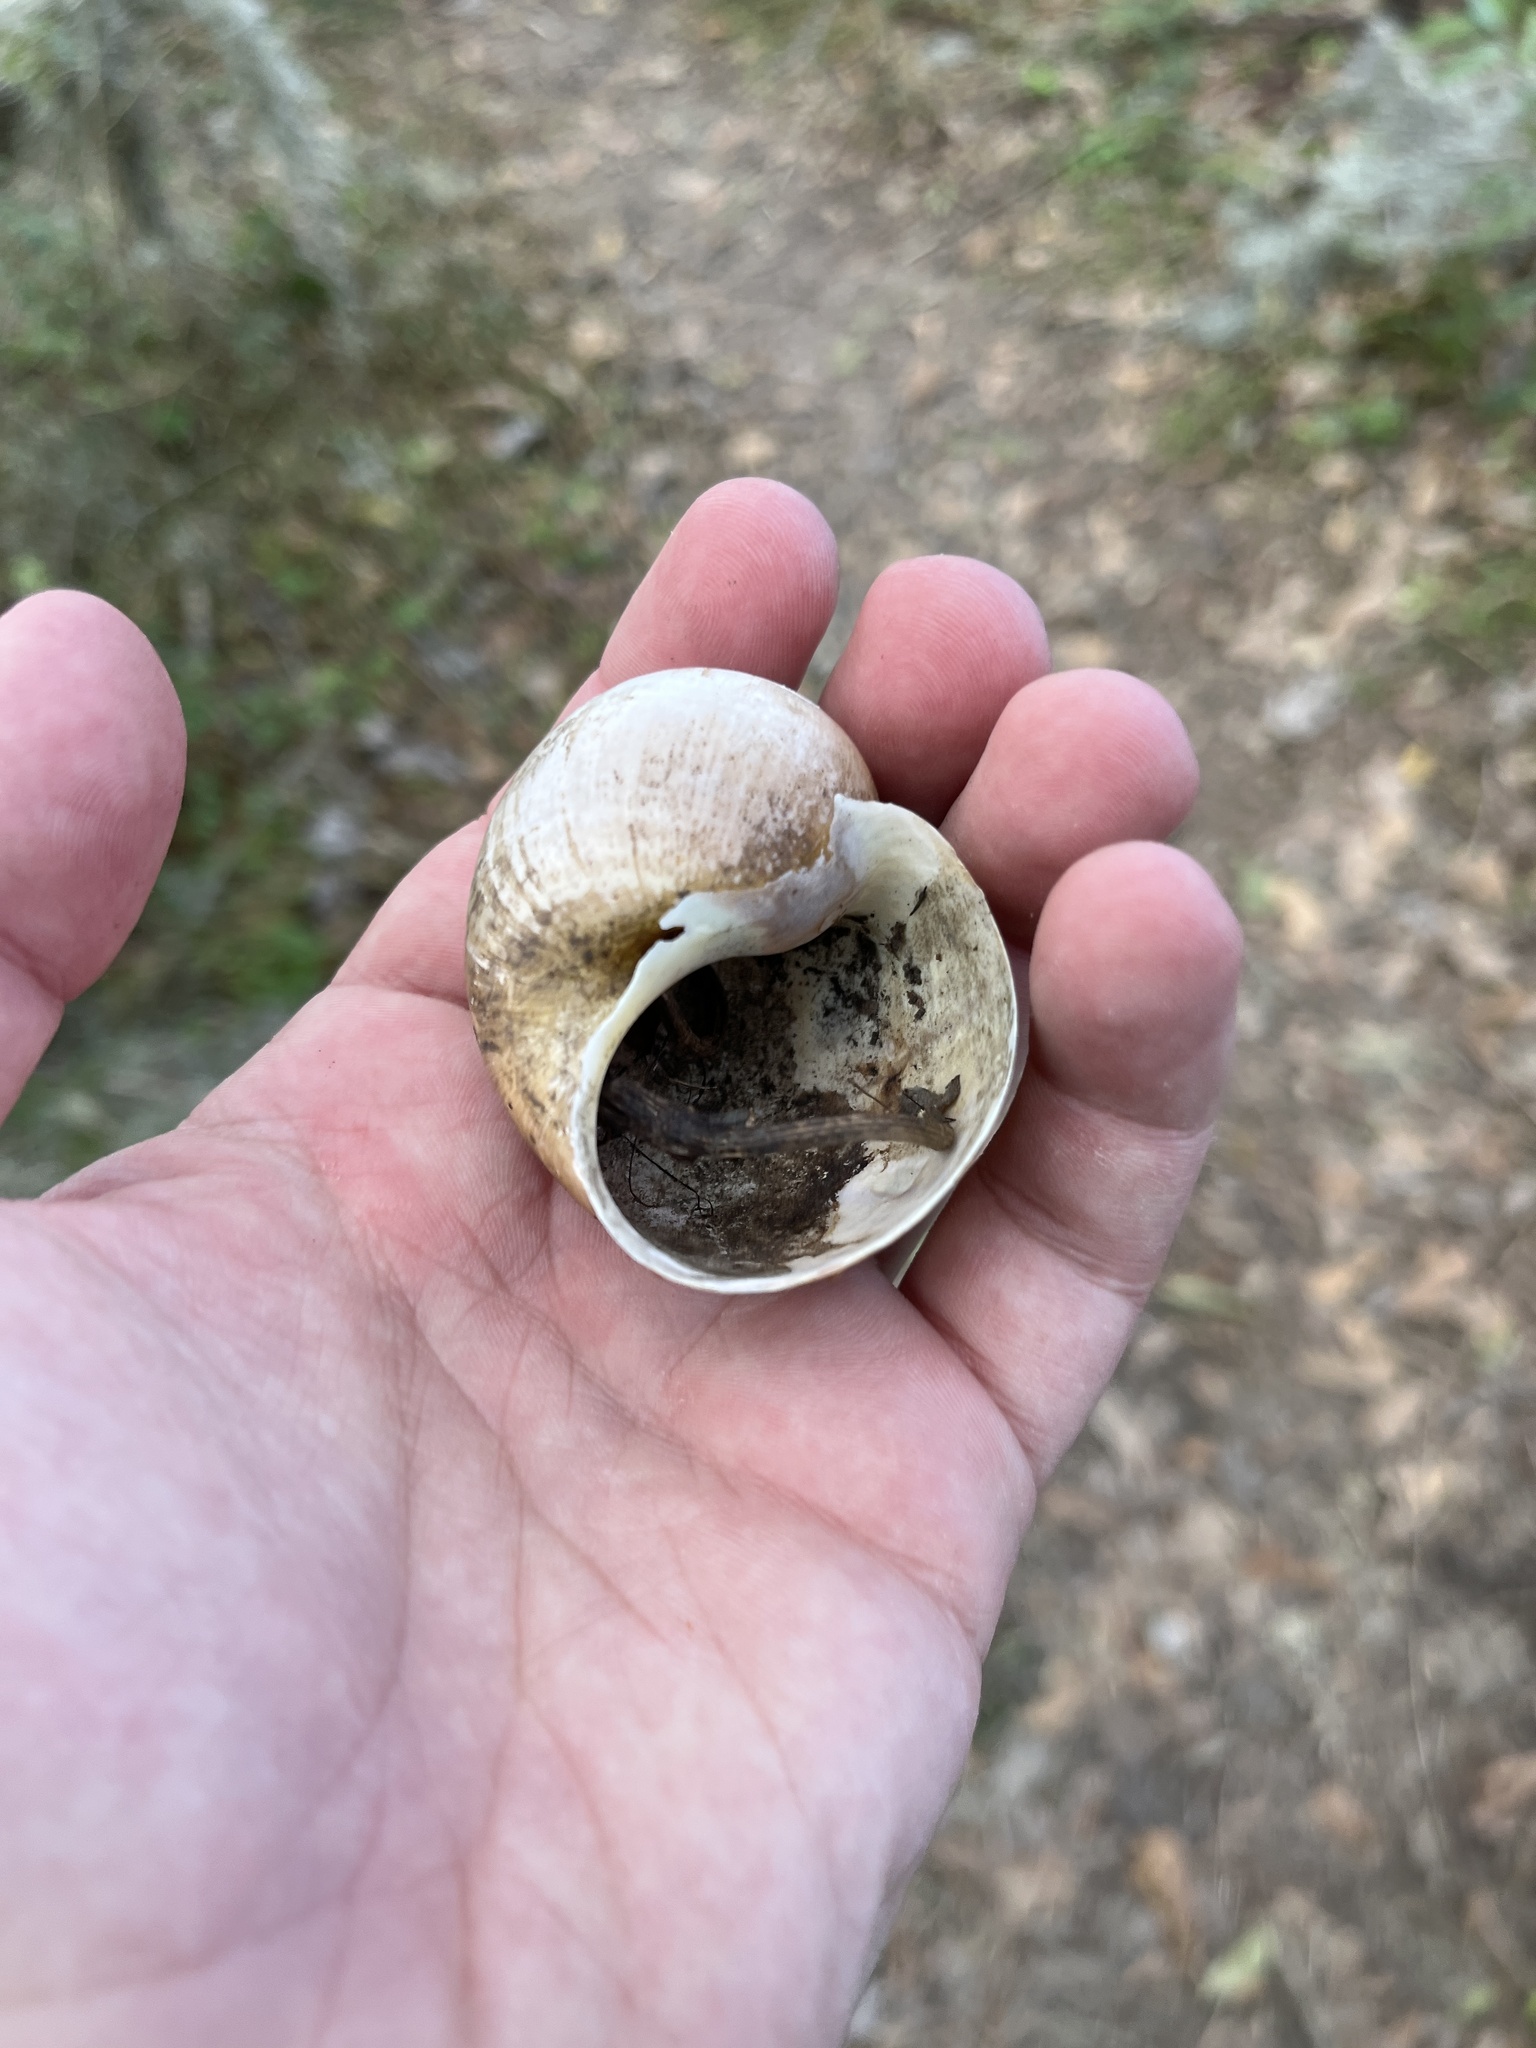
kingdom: Animalia
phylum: Mollusca
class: Gastropoda
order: Architaenioglossa
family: Ampullariidae
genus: Pomacea
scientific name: Pomacea maculata
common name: Giant applesnail
